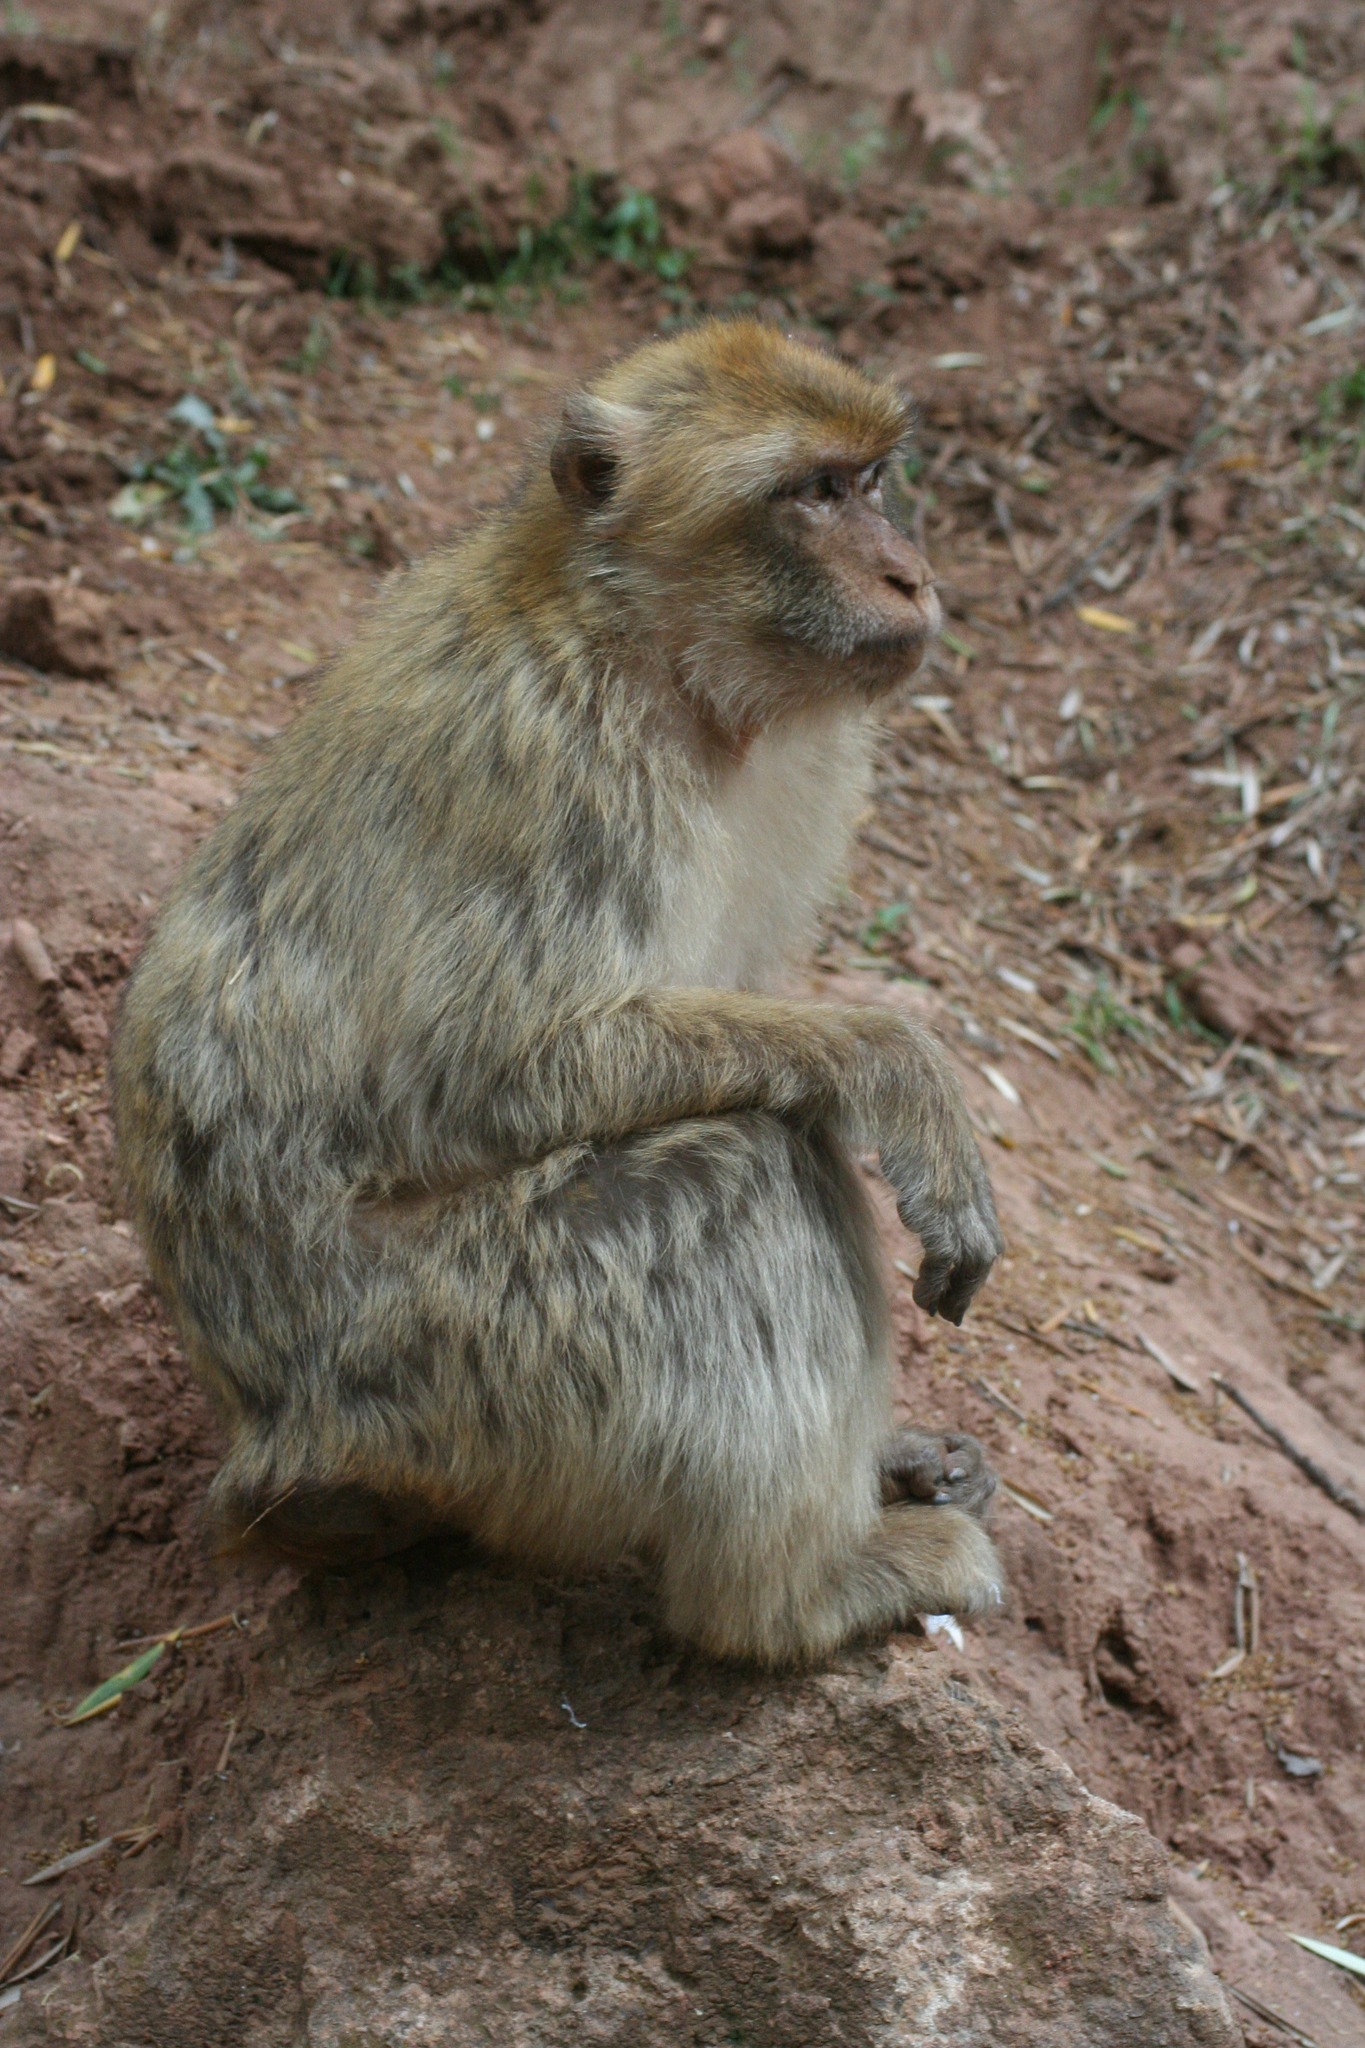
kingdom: Animalia
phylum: Chordata
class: Mammalia
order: Primates
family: Cercopithecidae
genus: Macaca
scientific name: Macaca sylvanus
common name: Barbary macaque
